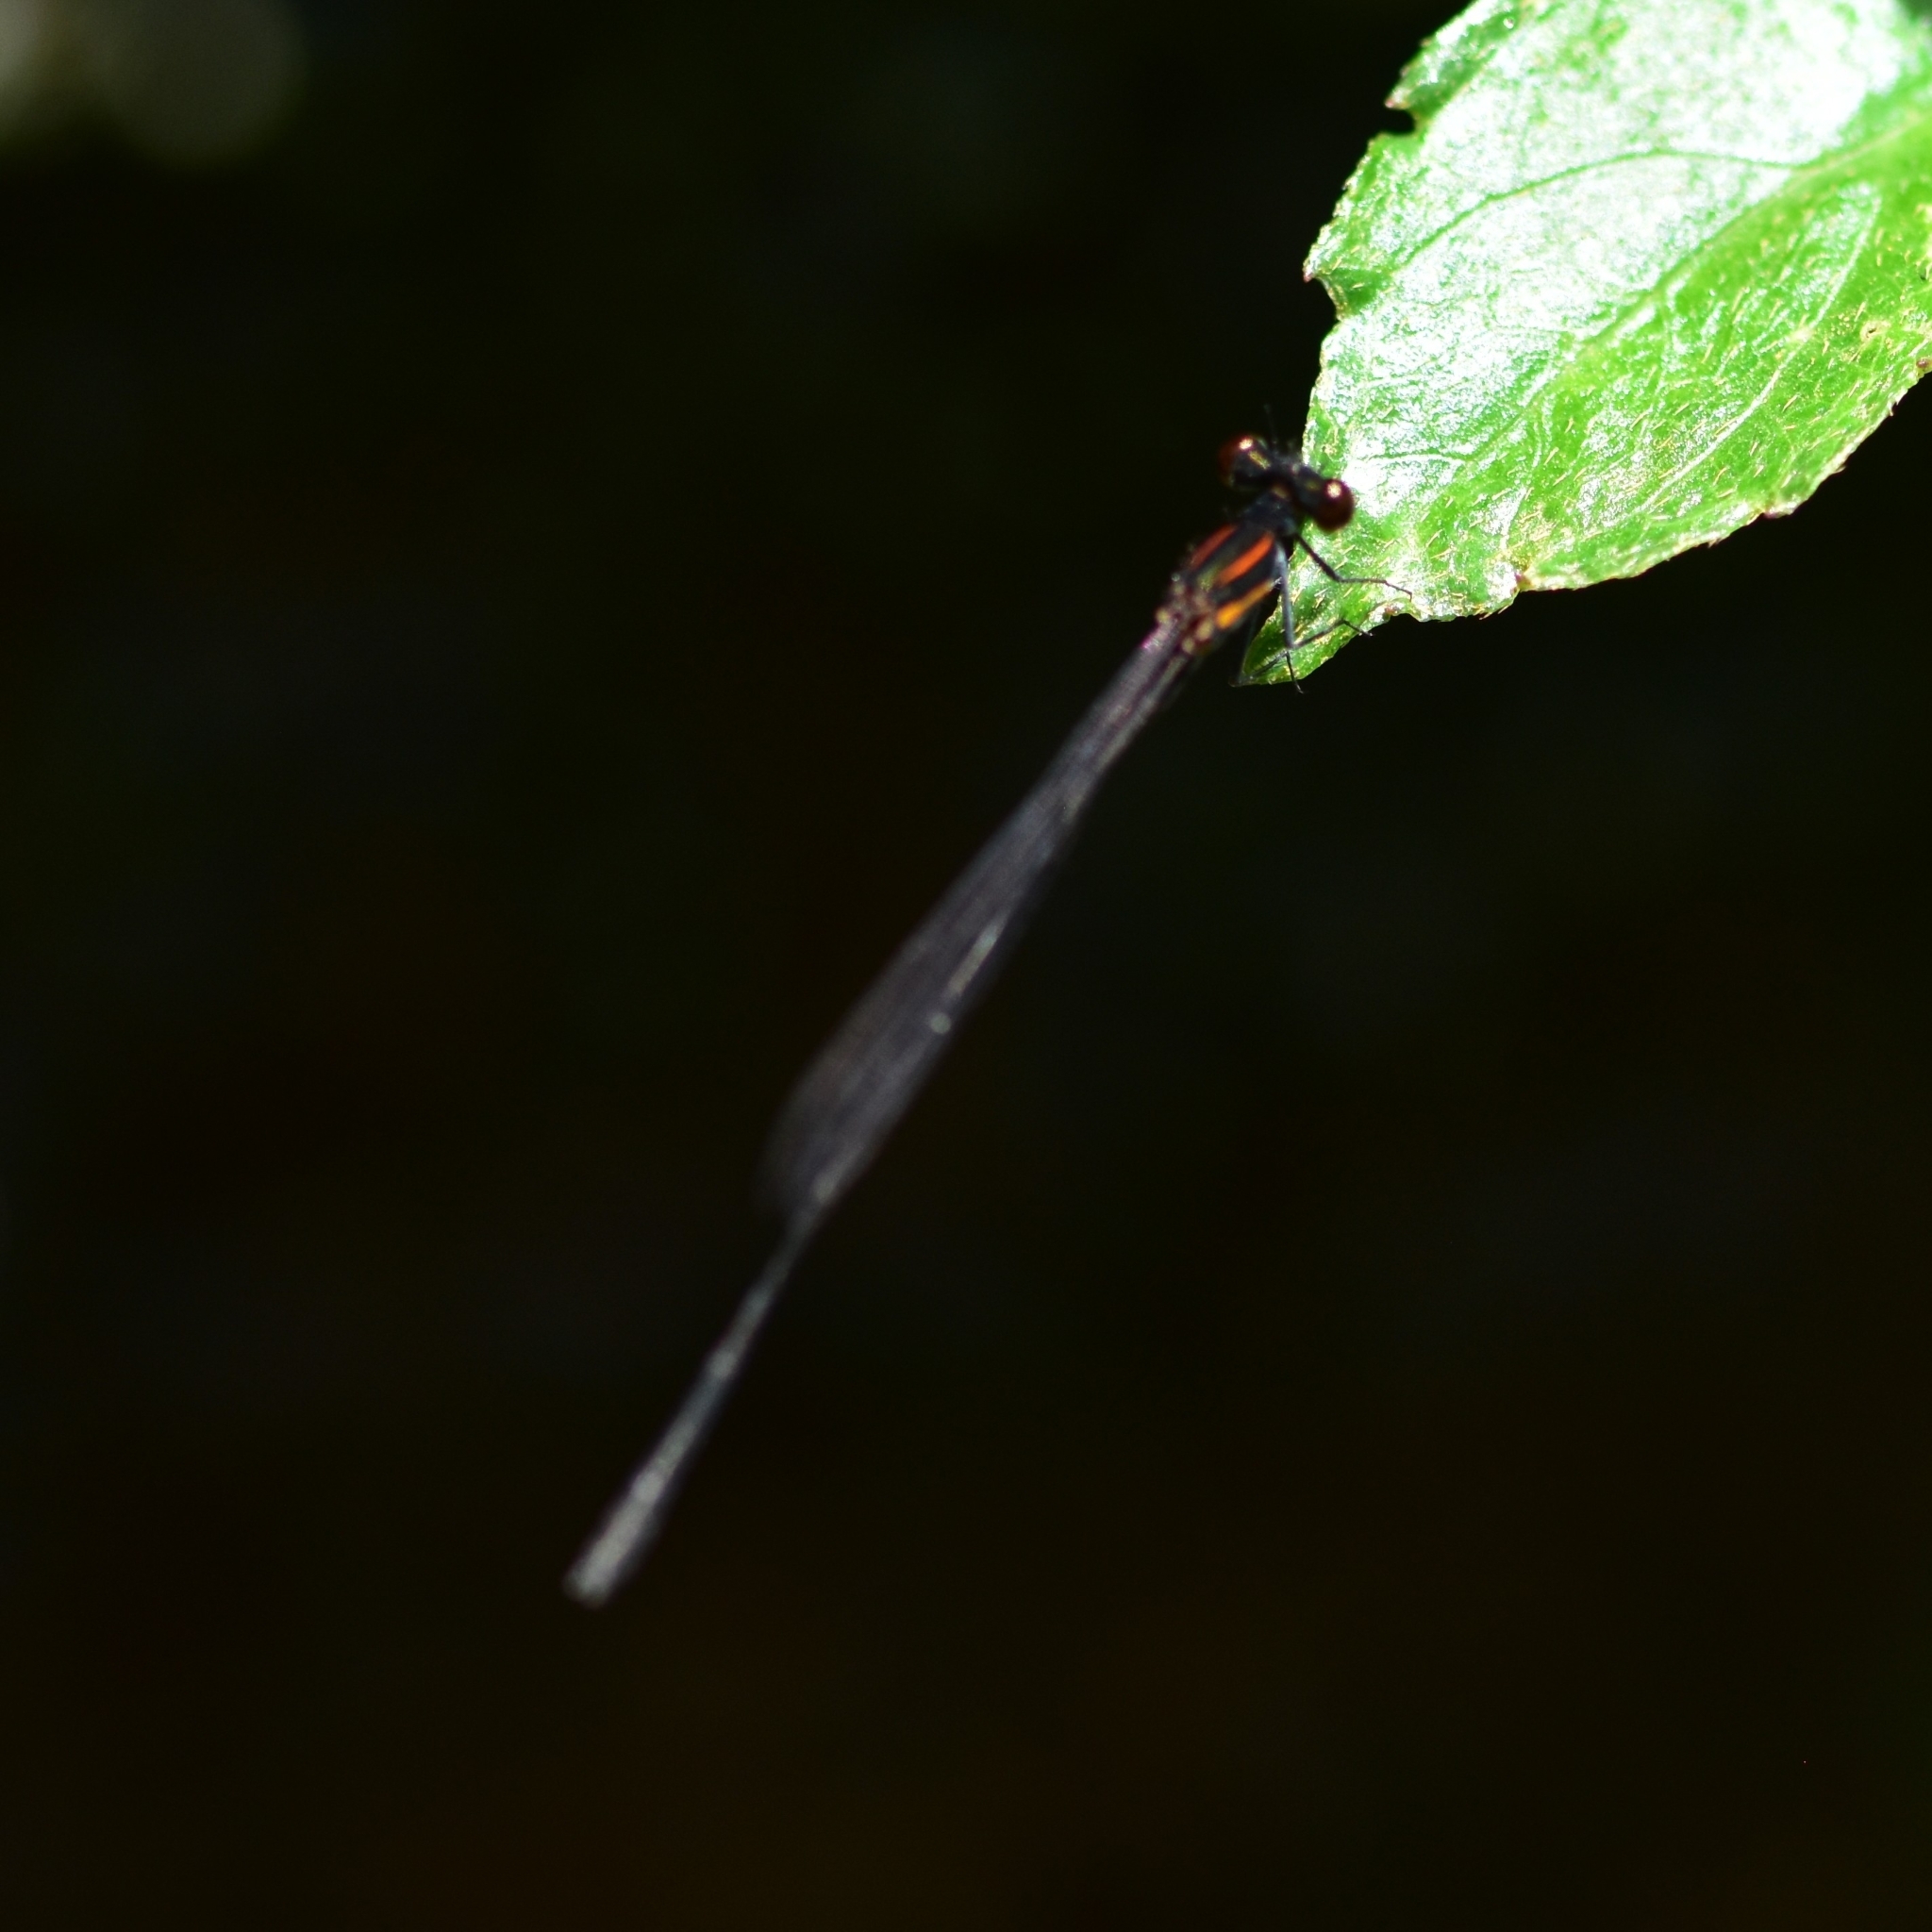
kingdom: Animalia
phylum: Arthropoda
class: Insecta
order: Odonata
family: Platycnemididae
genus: Prodasineura
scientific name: Prodasineura verticalis
